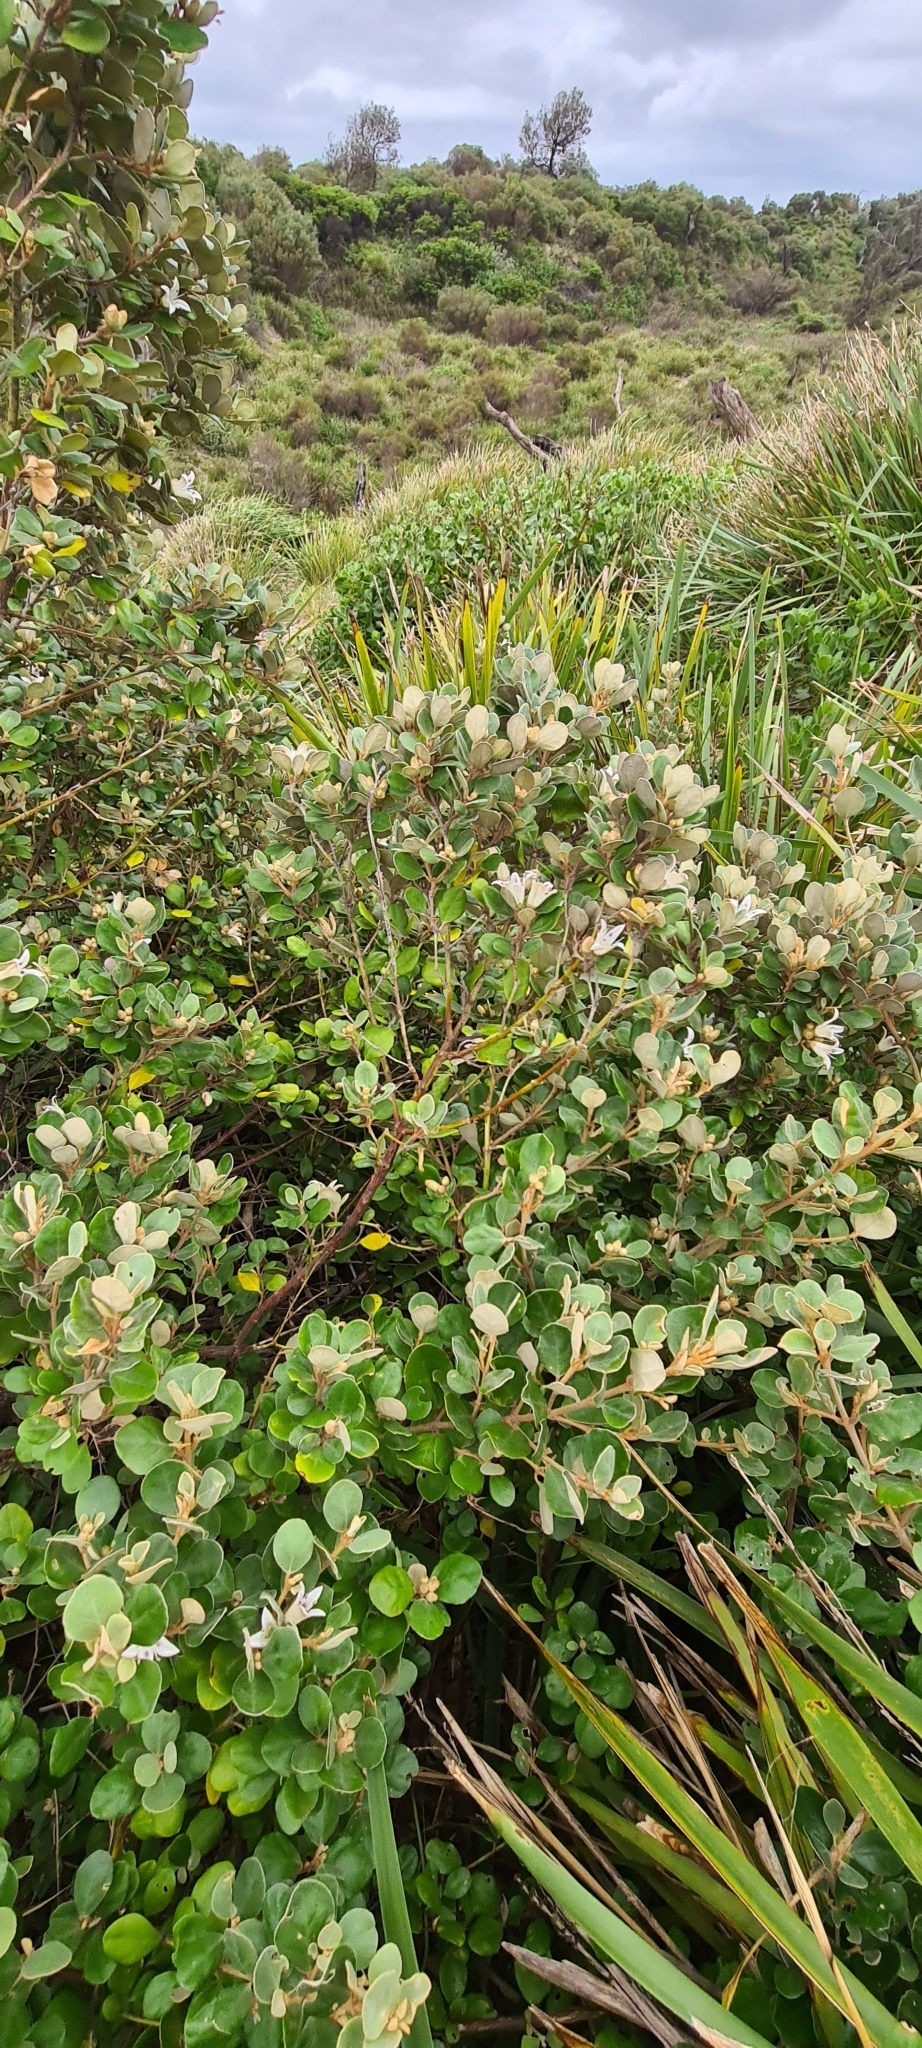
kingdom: Plantae
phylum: Tracheophyta
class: Magnoliopsida
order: Sapindales
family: Rutaceae
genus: Correa
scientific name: Correa alba
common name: White correa
